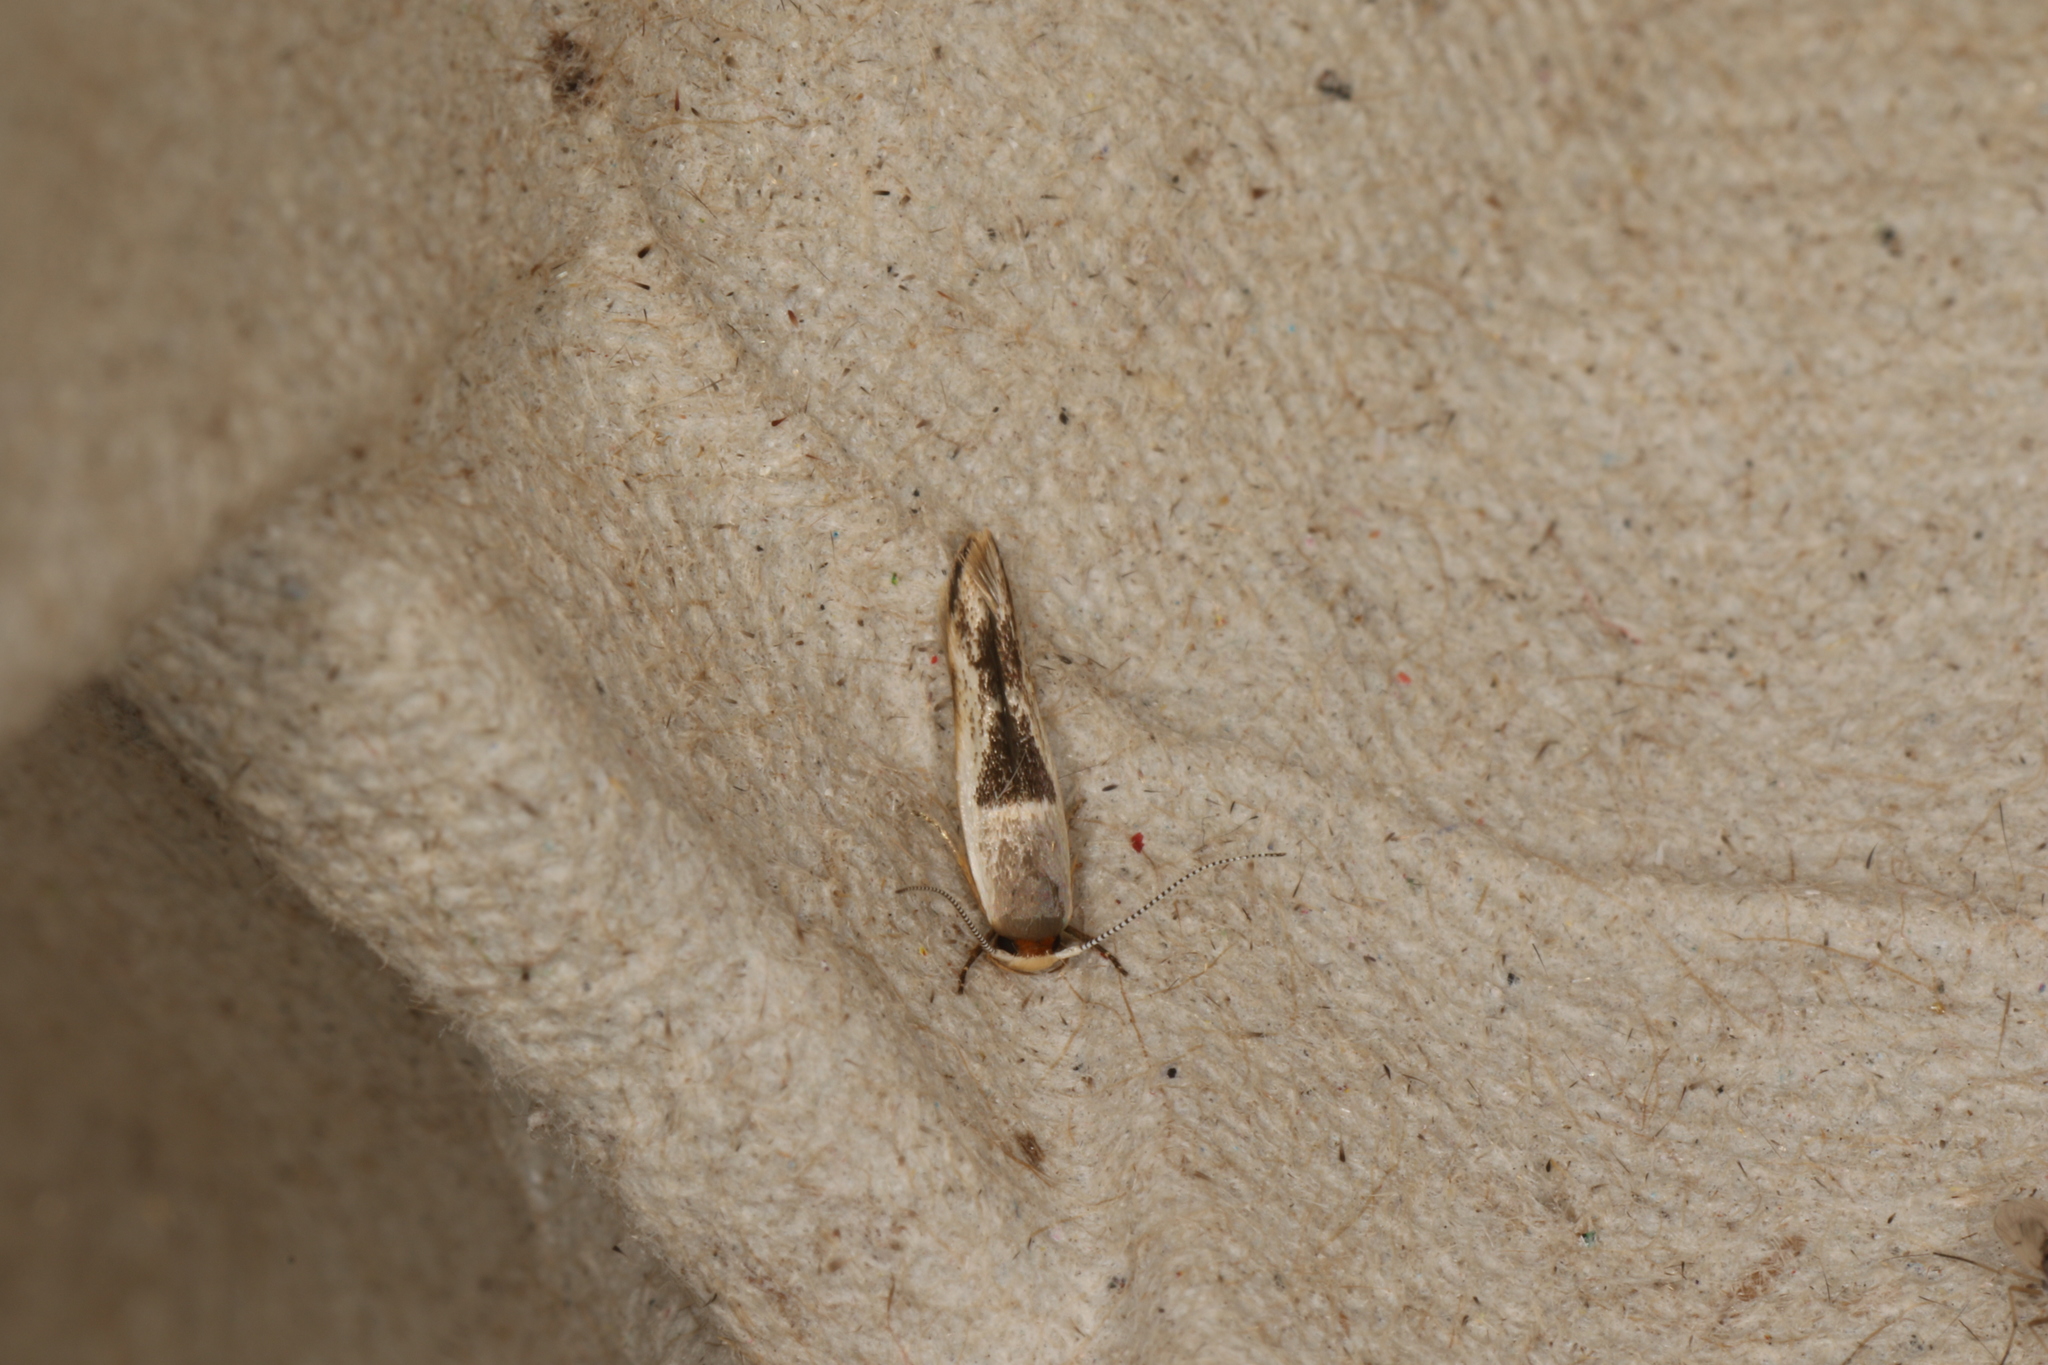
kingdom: Animalia
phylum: Arthropoda
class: Insecta
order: Lepidoptera
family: Stathmopodidae
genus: Stathmopoda
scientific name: Stathmopoda megathyma
